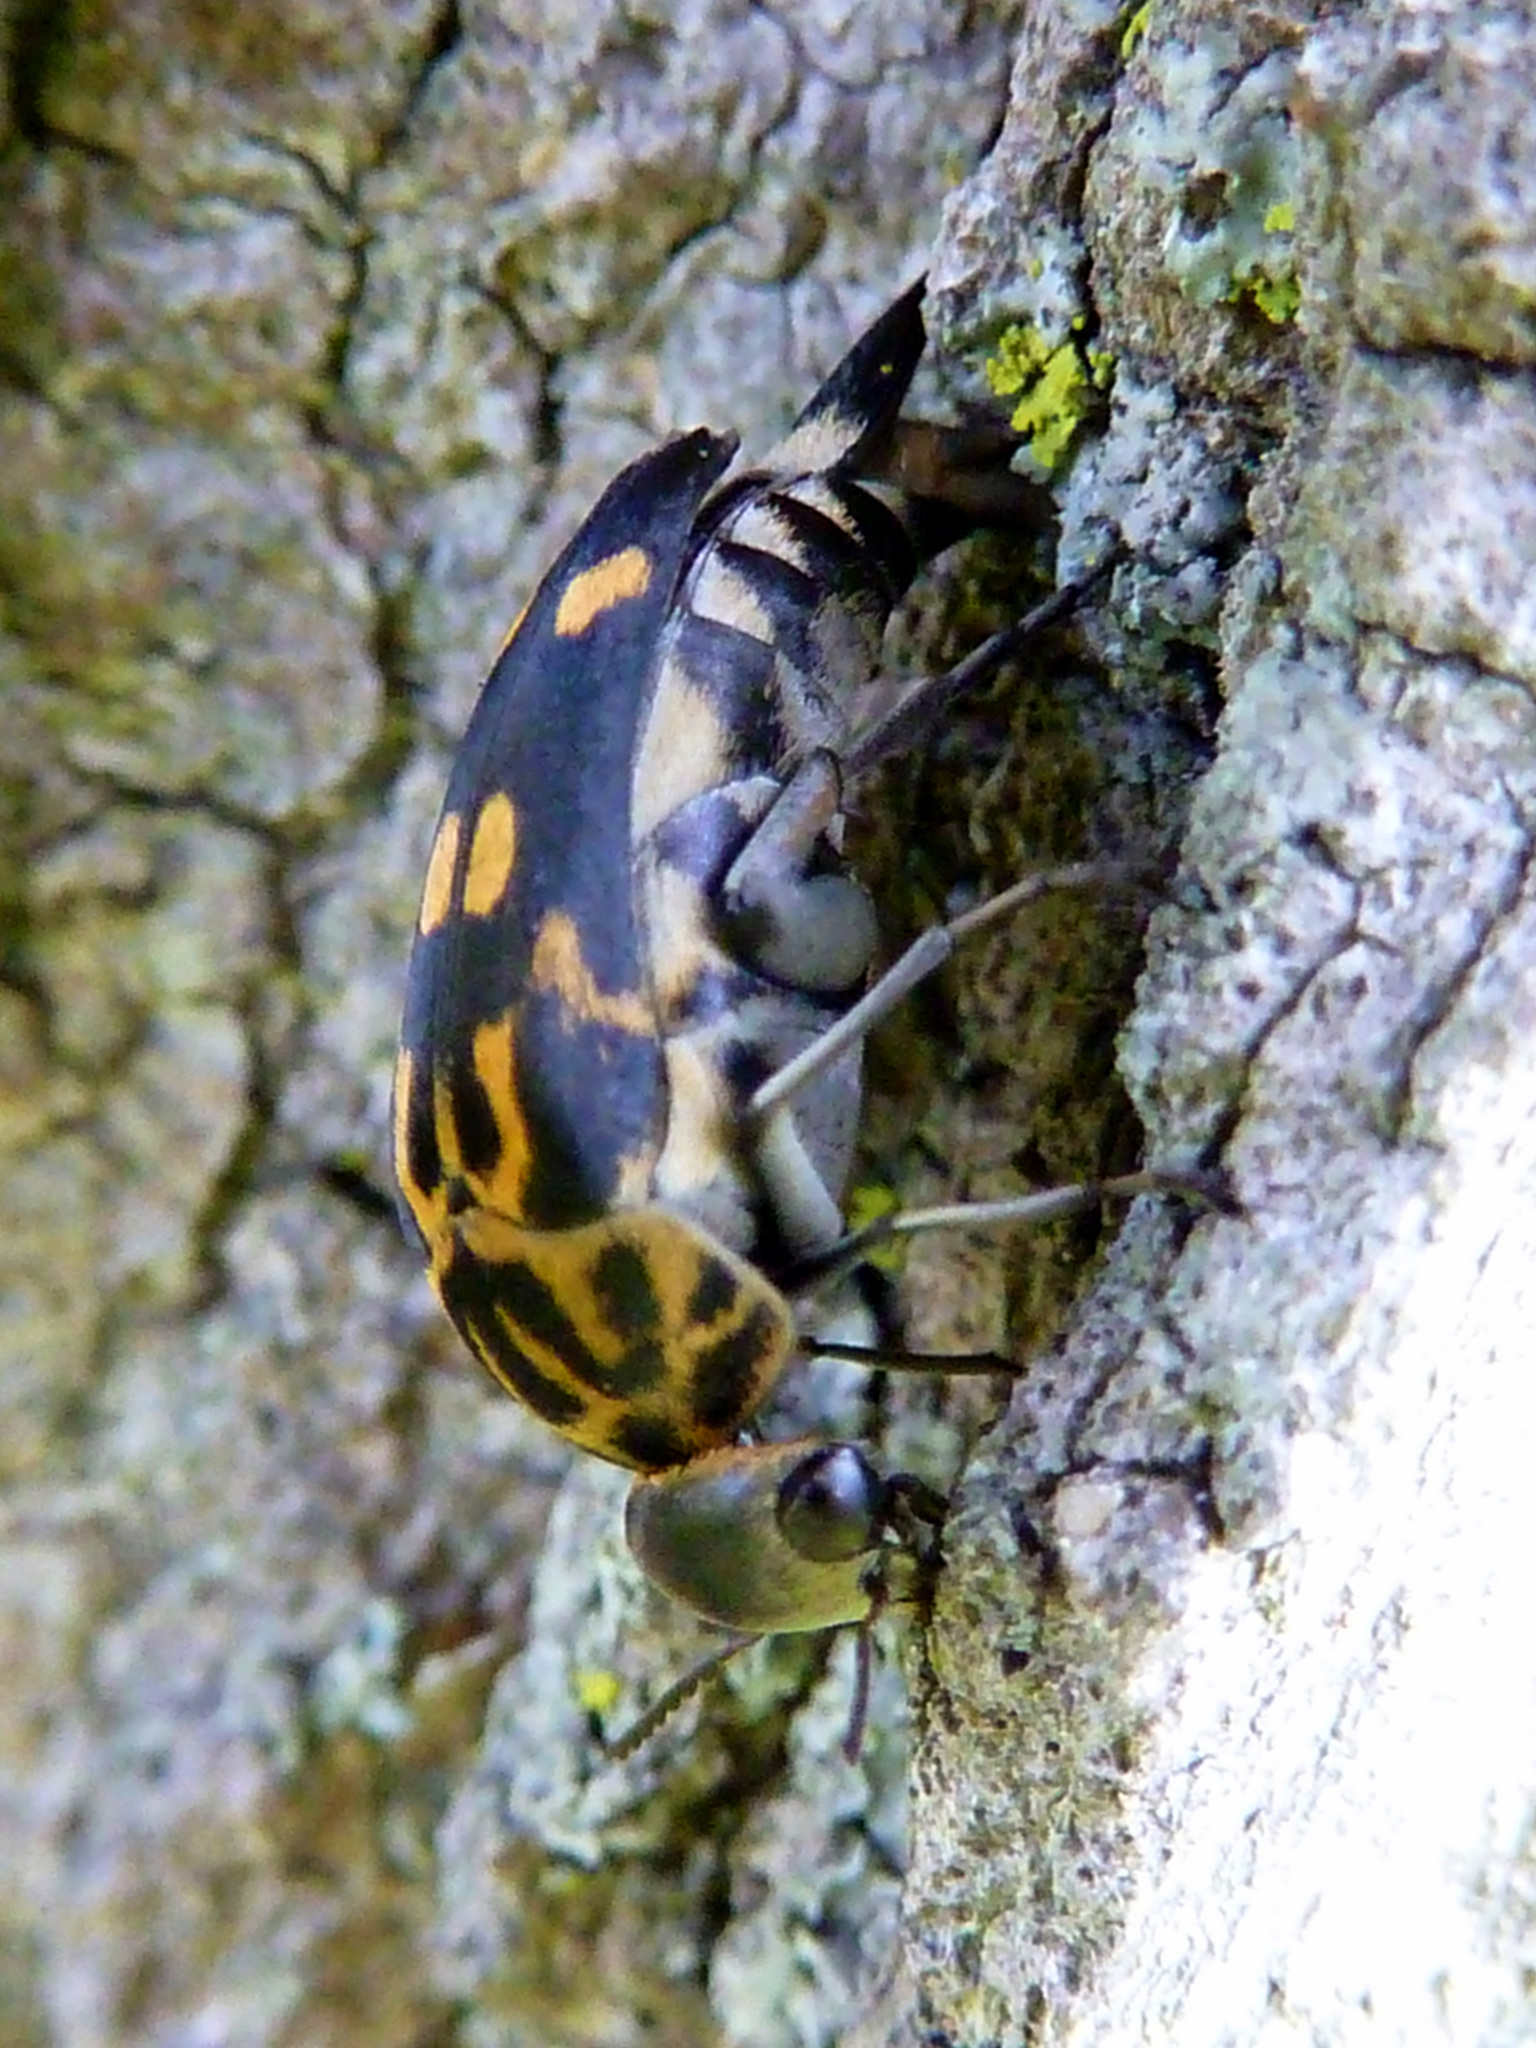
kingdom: Animalia
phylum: Arthropoda
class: Insecta
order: Coleoptera
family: Mordellidae
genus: Hoshihananomia
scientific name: Hoshihananomia octopunctata
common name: Eight-spotted tumbling flower beetle
